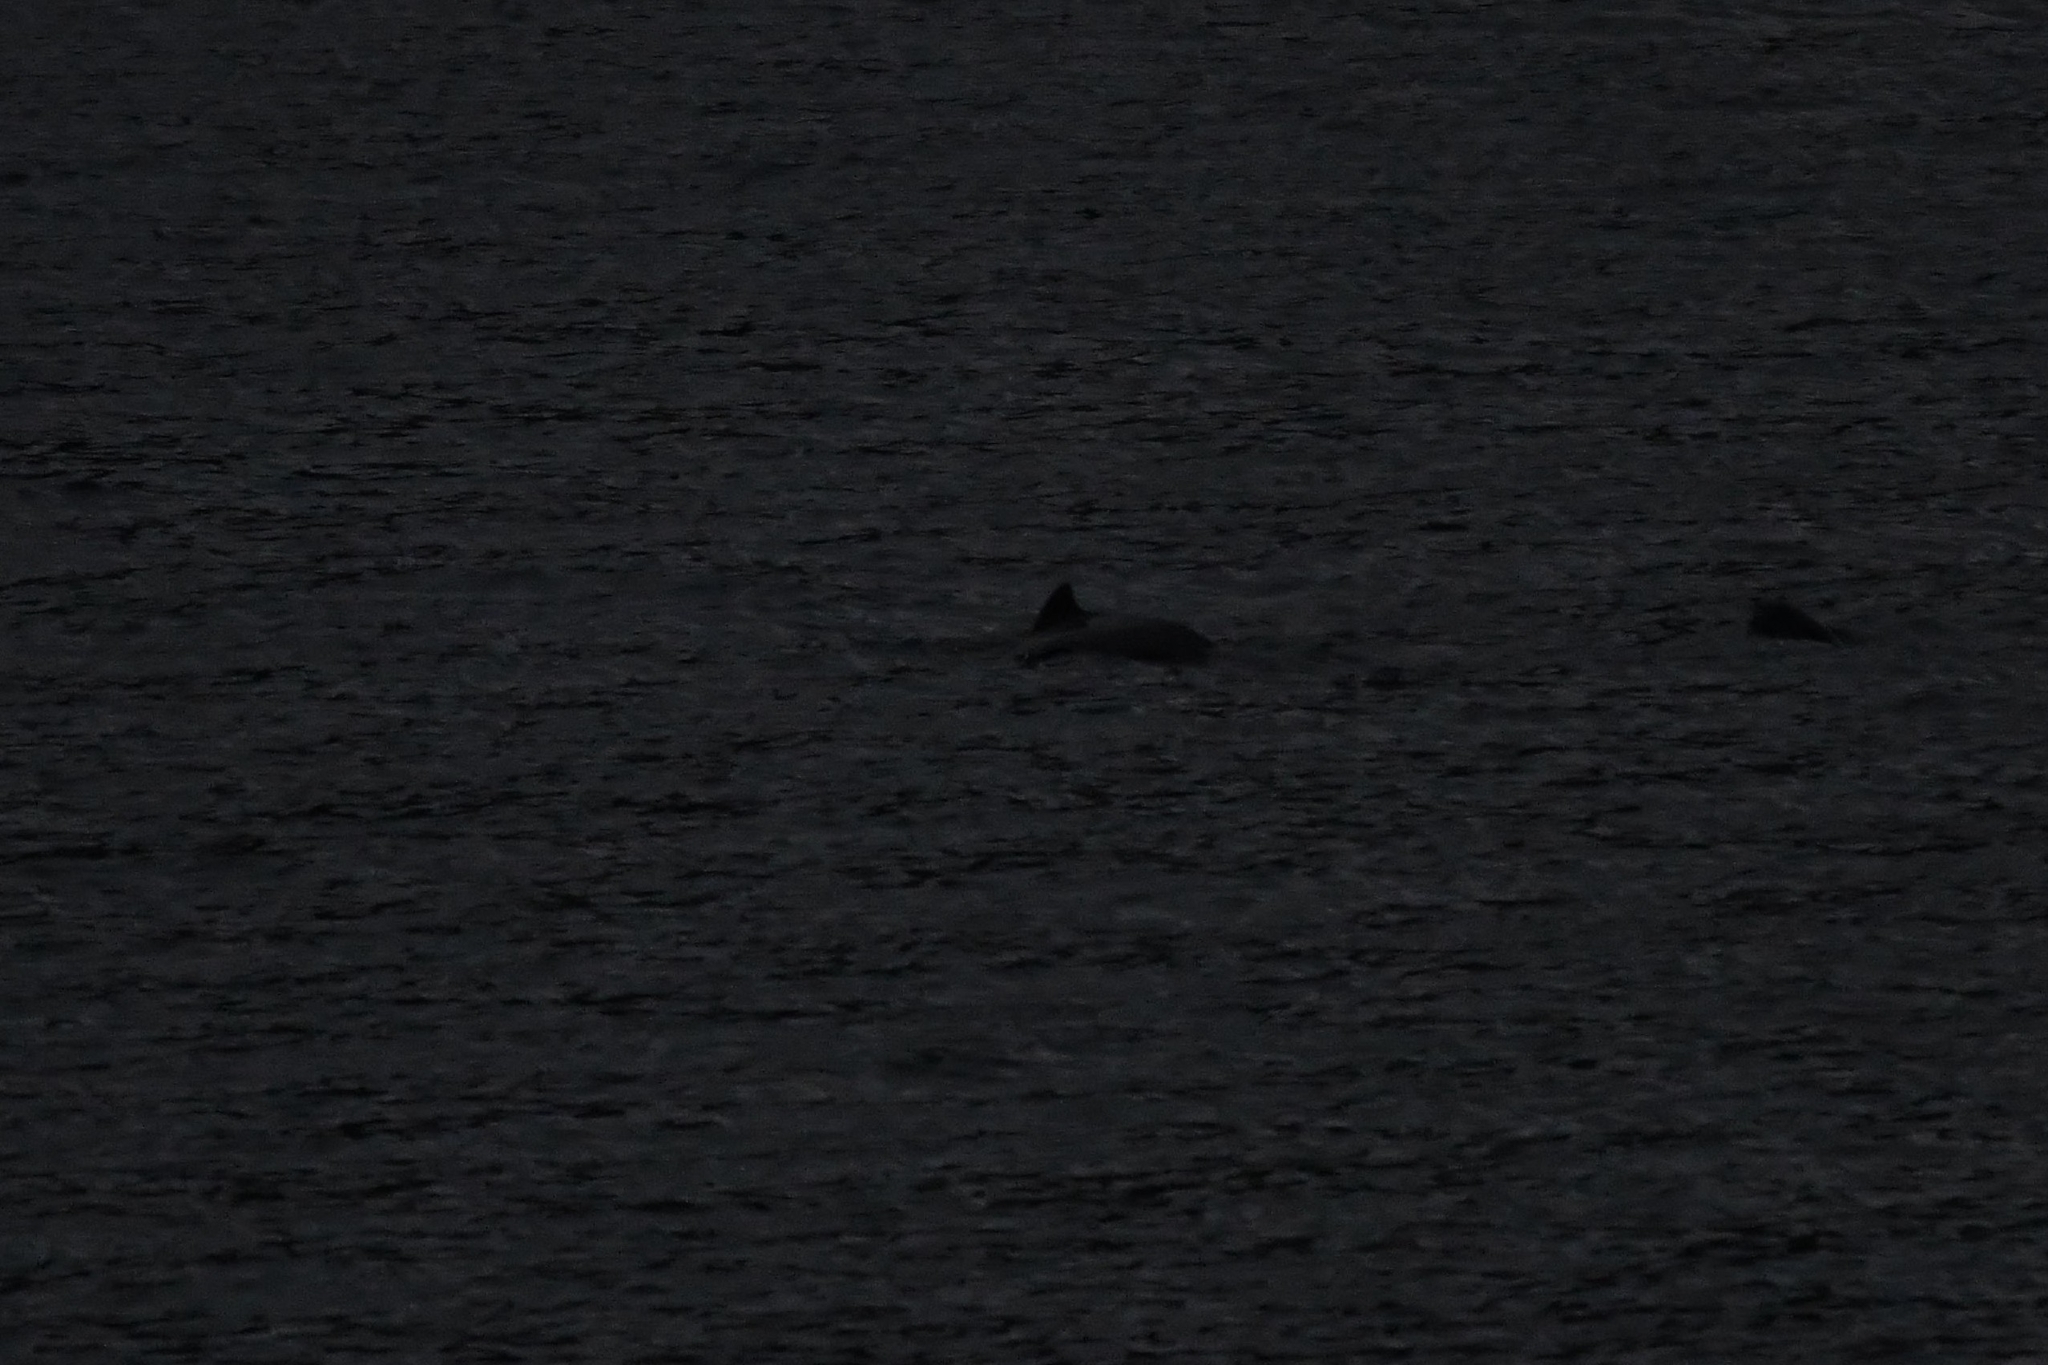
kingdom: Animalia
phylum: Chordata
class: Mammalia
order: Cetacea
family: Phocoenidae
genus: Phocoena
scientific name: Phocoena phocoena
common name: Harbor porpoise
